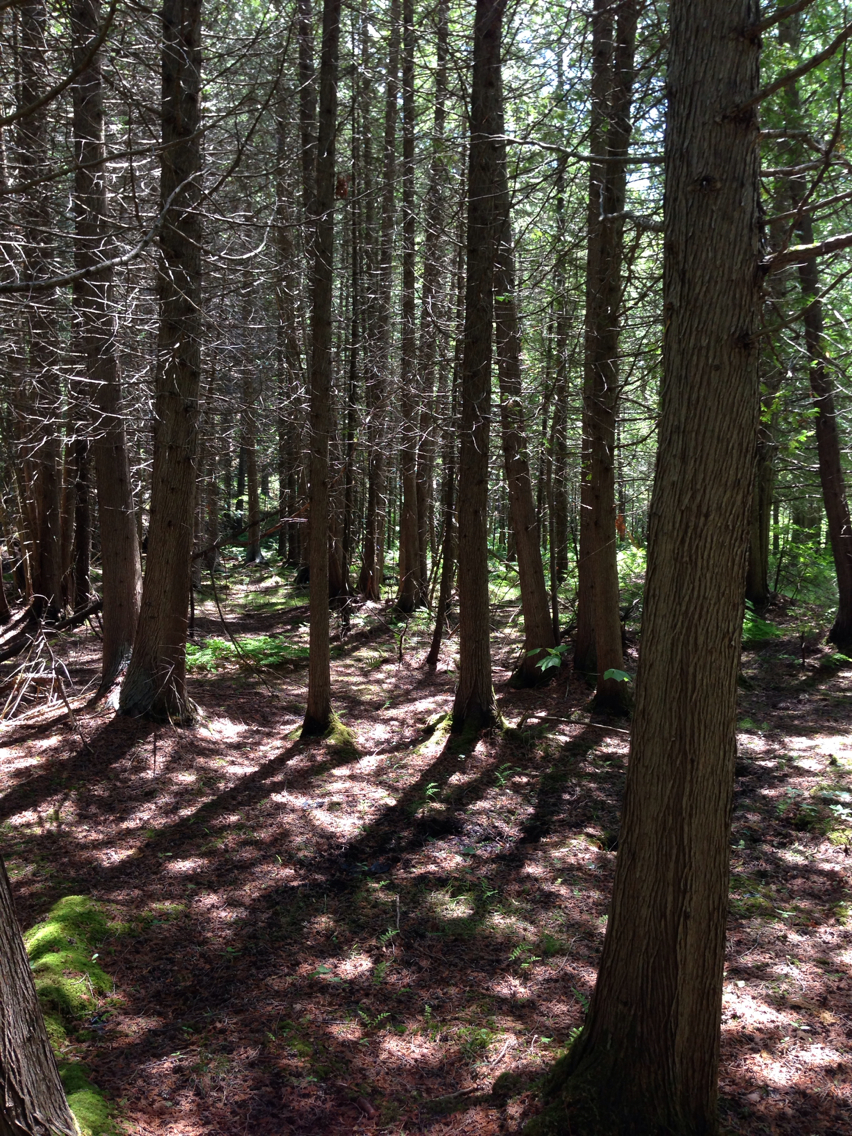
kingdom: Plantae
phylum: Tracheophyta
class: Pinopsida
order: Pinales
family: Cupressaceae
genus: Thuja
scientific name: Thuja occidentalis
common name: Northern white-cedar
